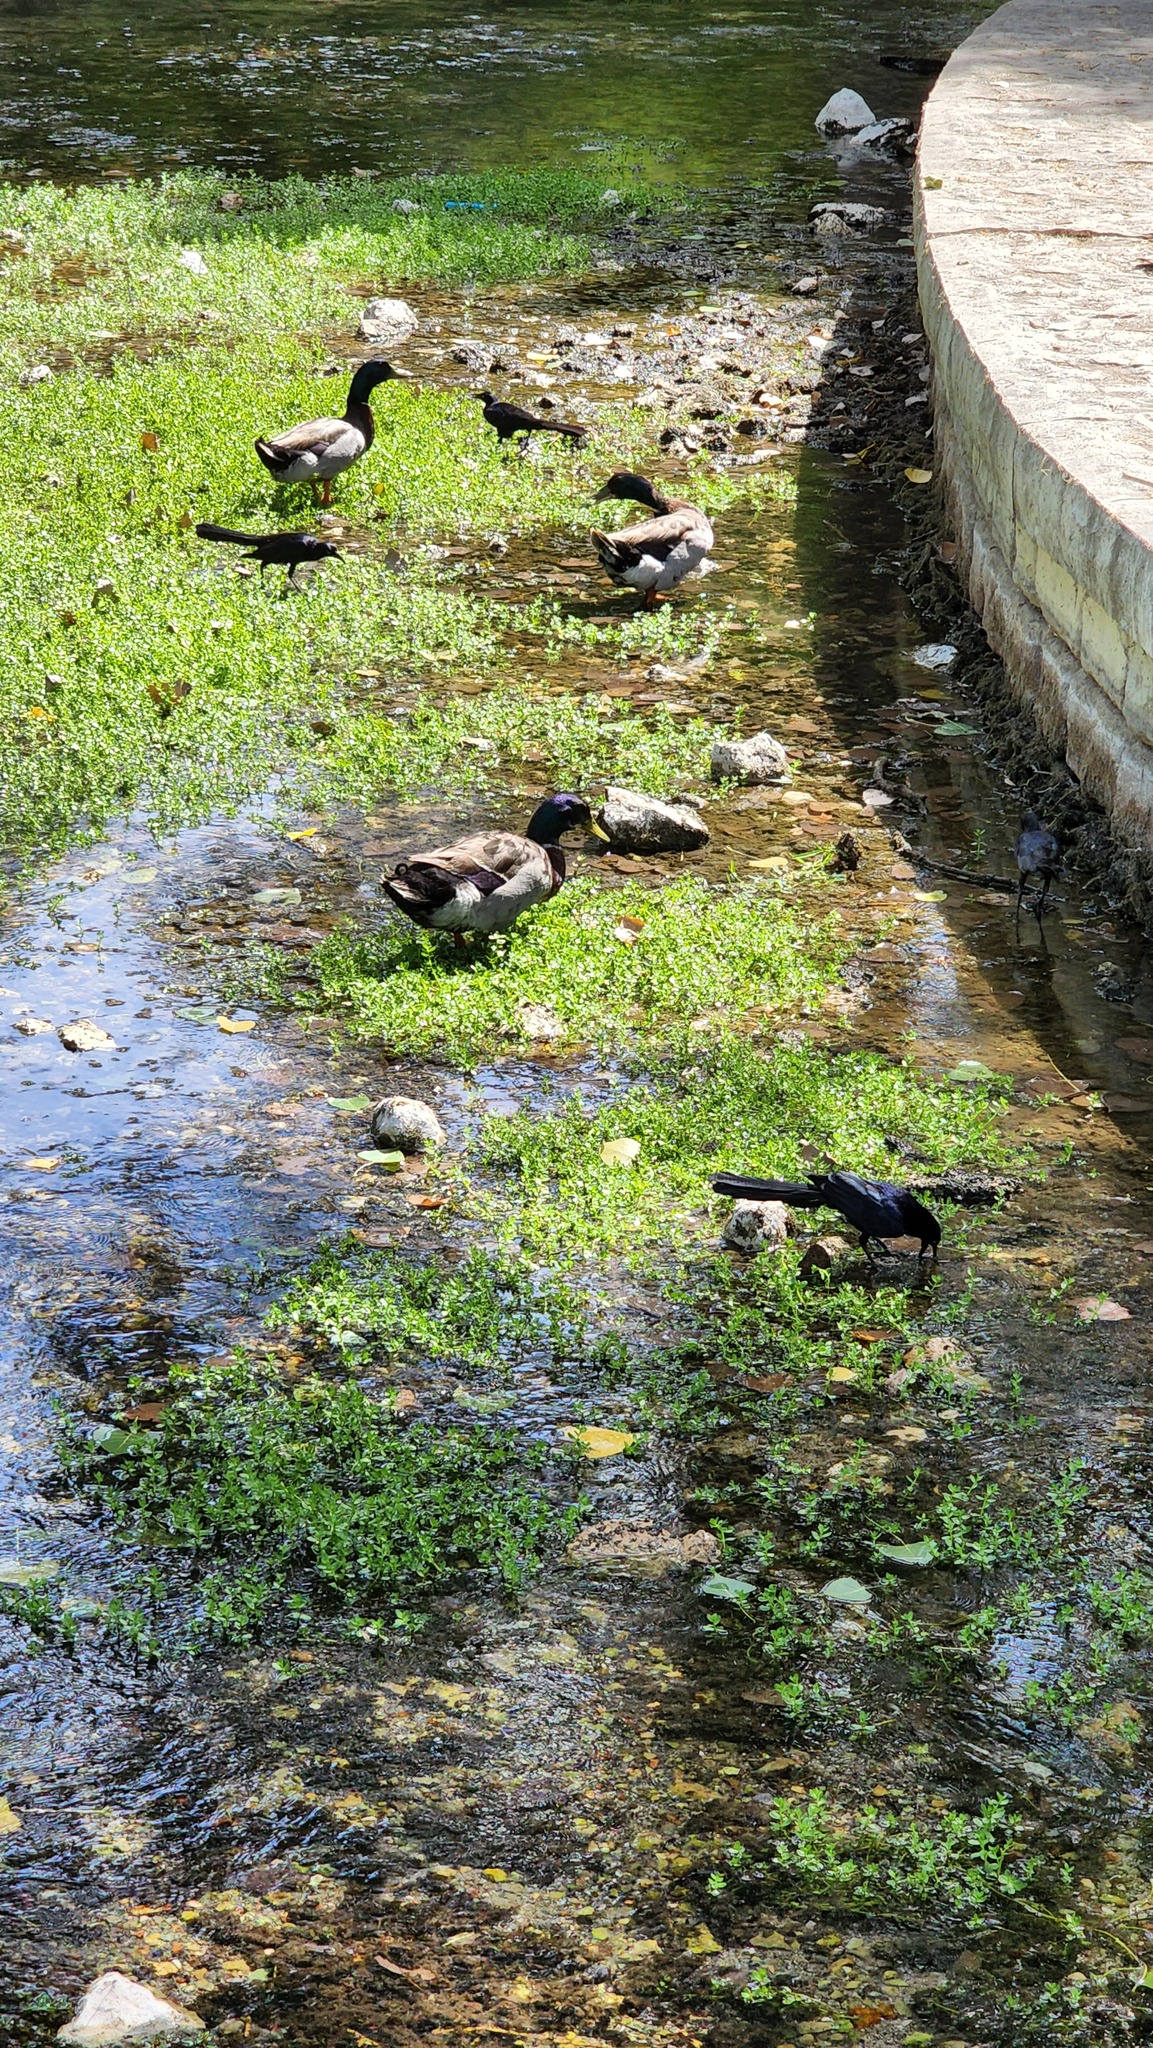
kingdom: Animalia
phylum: Chordata
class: Aves
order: Anseriformes
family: Anatidae
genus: Anas
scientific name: Anas platyrhynchos
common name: Mallard
